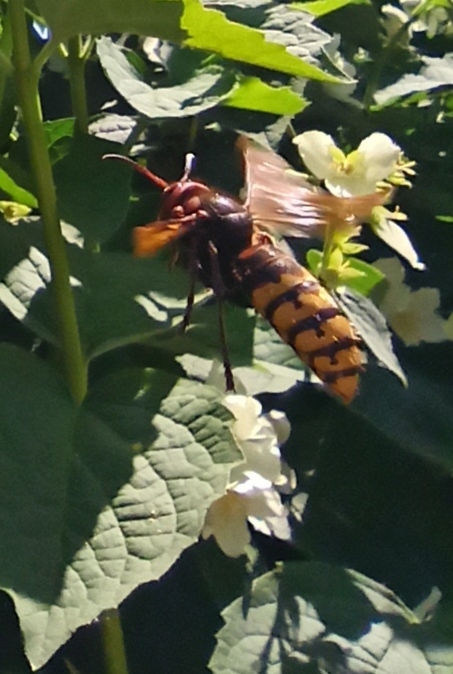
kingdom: Animalia
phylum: Arthropoda
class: Insecta
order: Hymenoptera
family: Vespidae
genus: Vespa
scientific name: Vespa crabro
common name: Hornet
